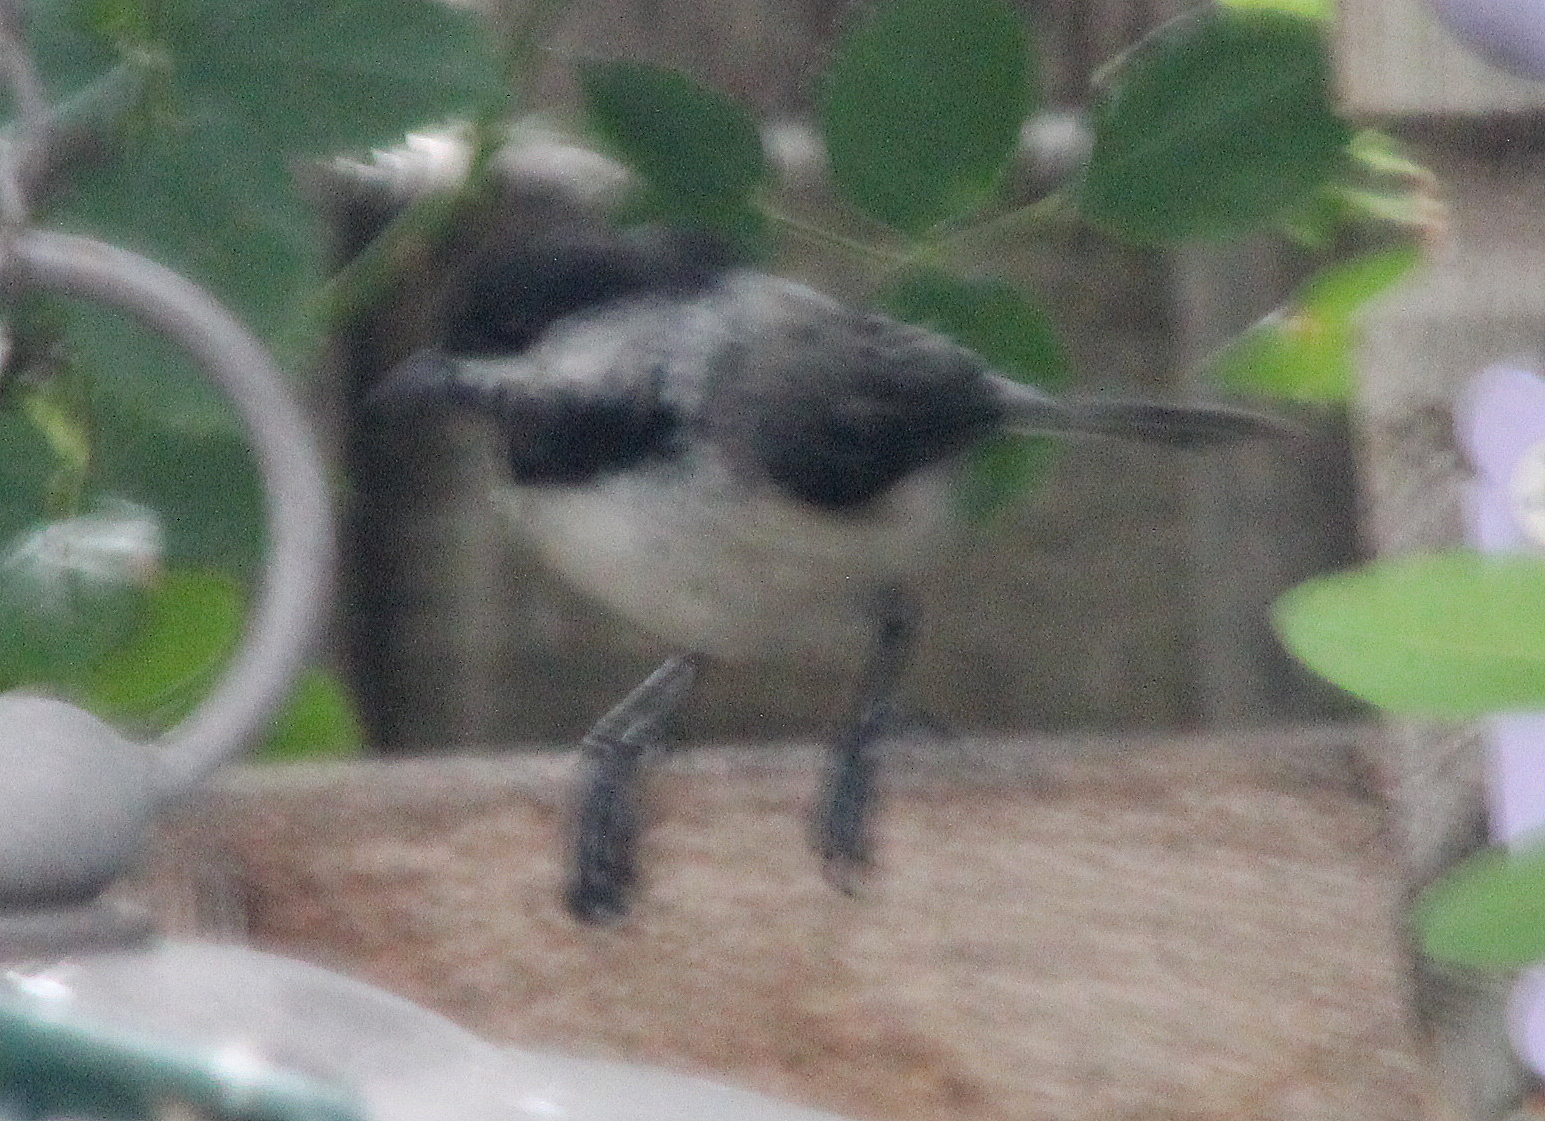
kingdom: Animalia
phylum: Chordata
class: Aves
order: Passeriformes
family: Paridae
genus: Poecile
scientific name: Poecile atricapillus
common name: Black-capped chickadee
